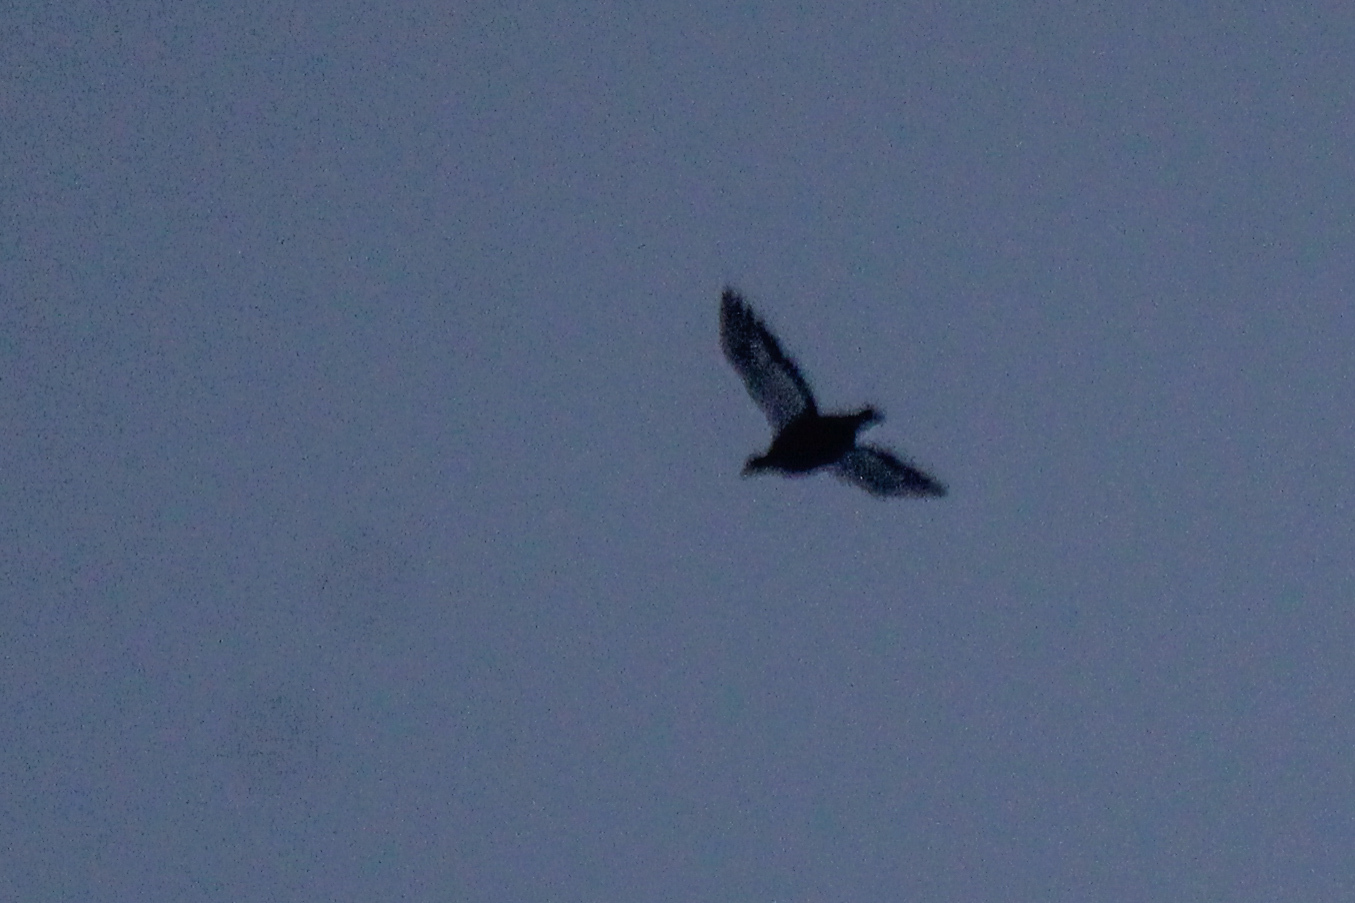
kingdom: Animalia
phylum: Chordata
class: Aves
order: Galliformes
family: Phasianidae
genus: Lyrurus
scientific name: Lyrurus tetrix
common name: Black grouse
